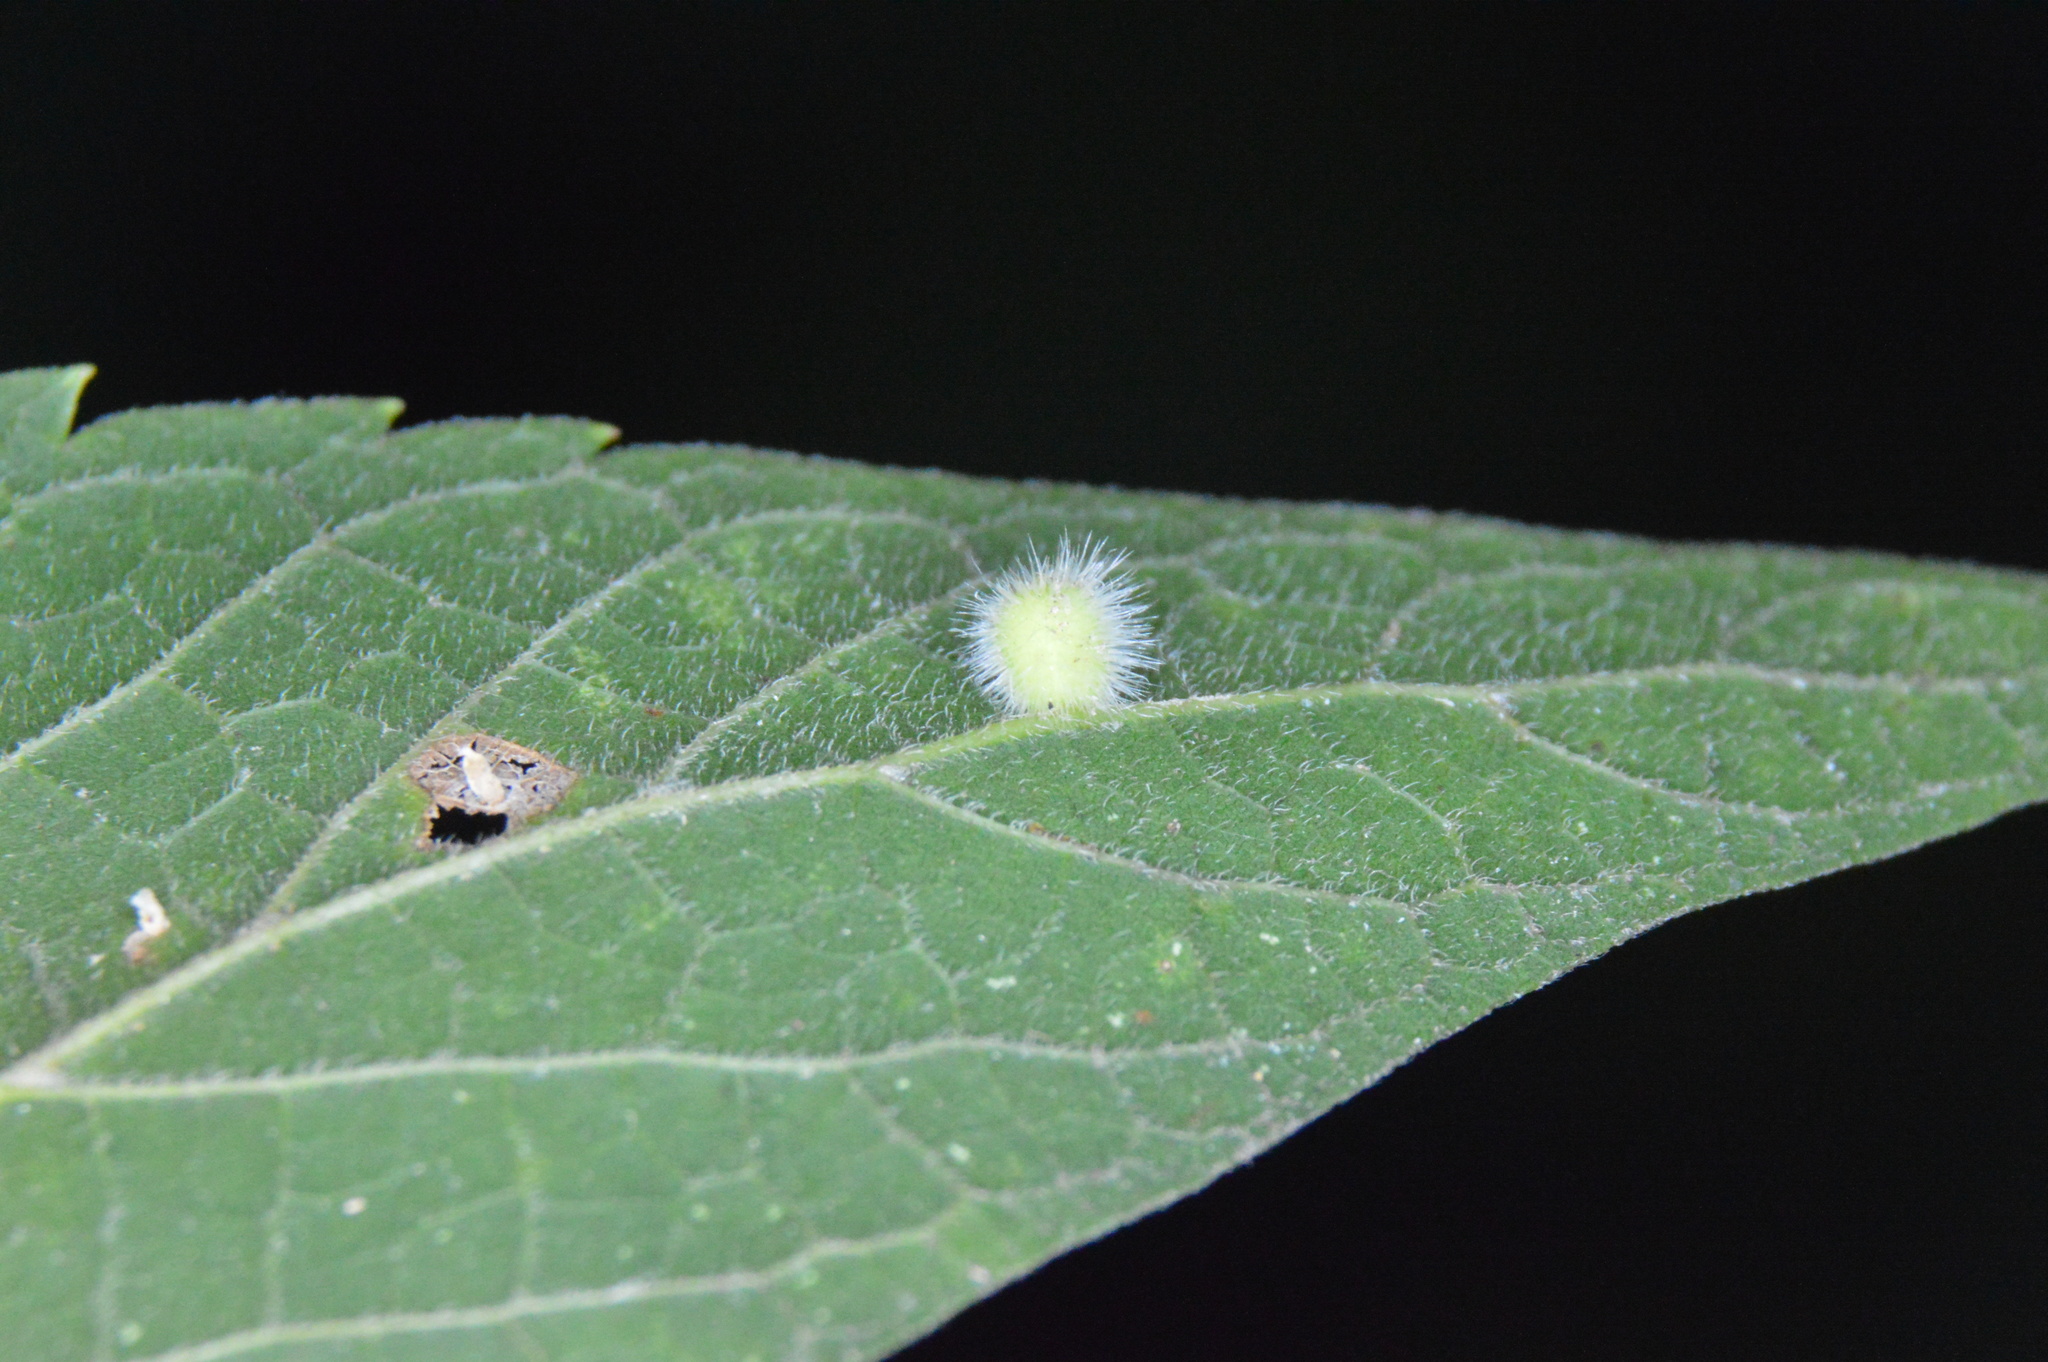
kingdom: Animalia
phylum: Arthropoda
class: Insecta
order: Diptera
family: Cecidomyiidae
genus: Celticecis
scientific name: Celticecis pubescens
